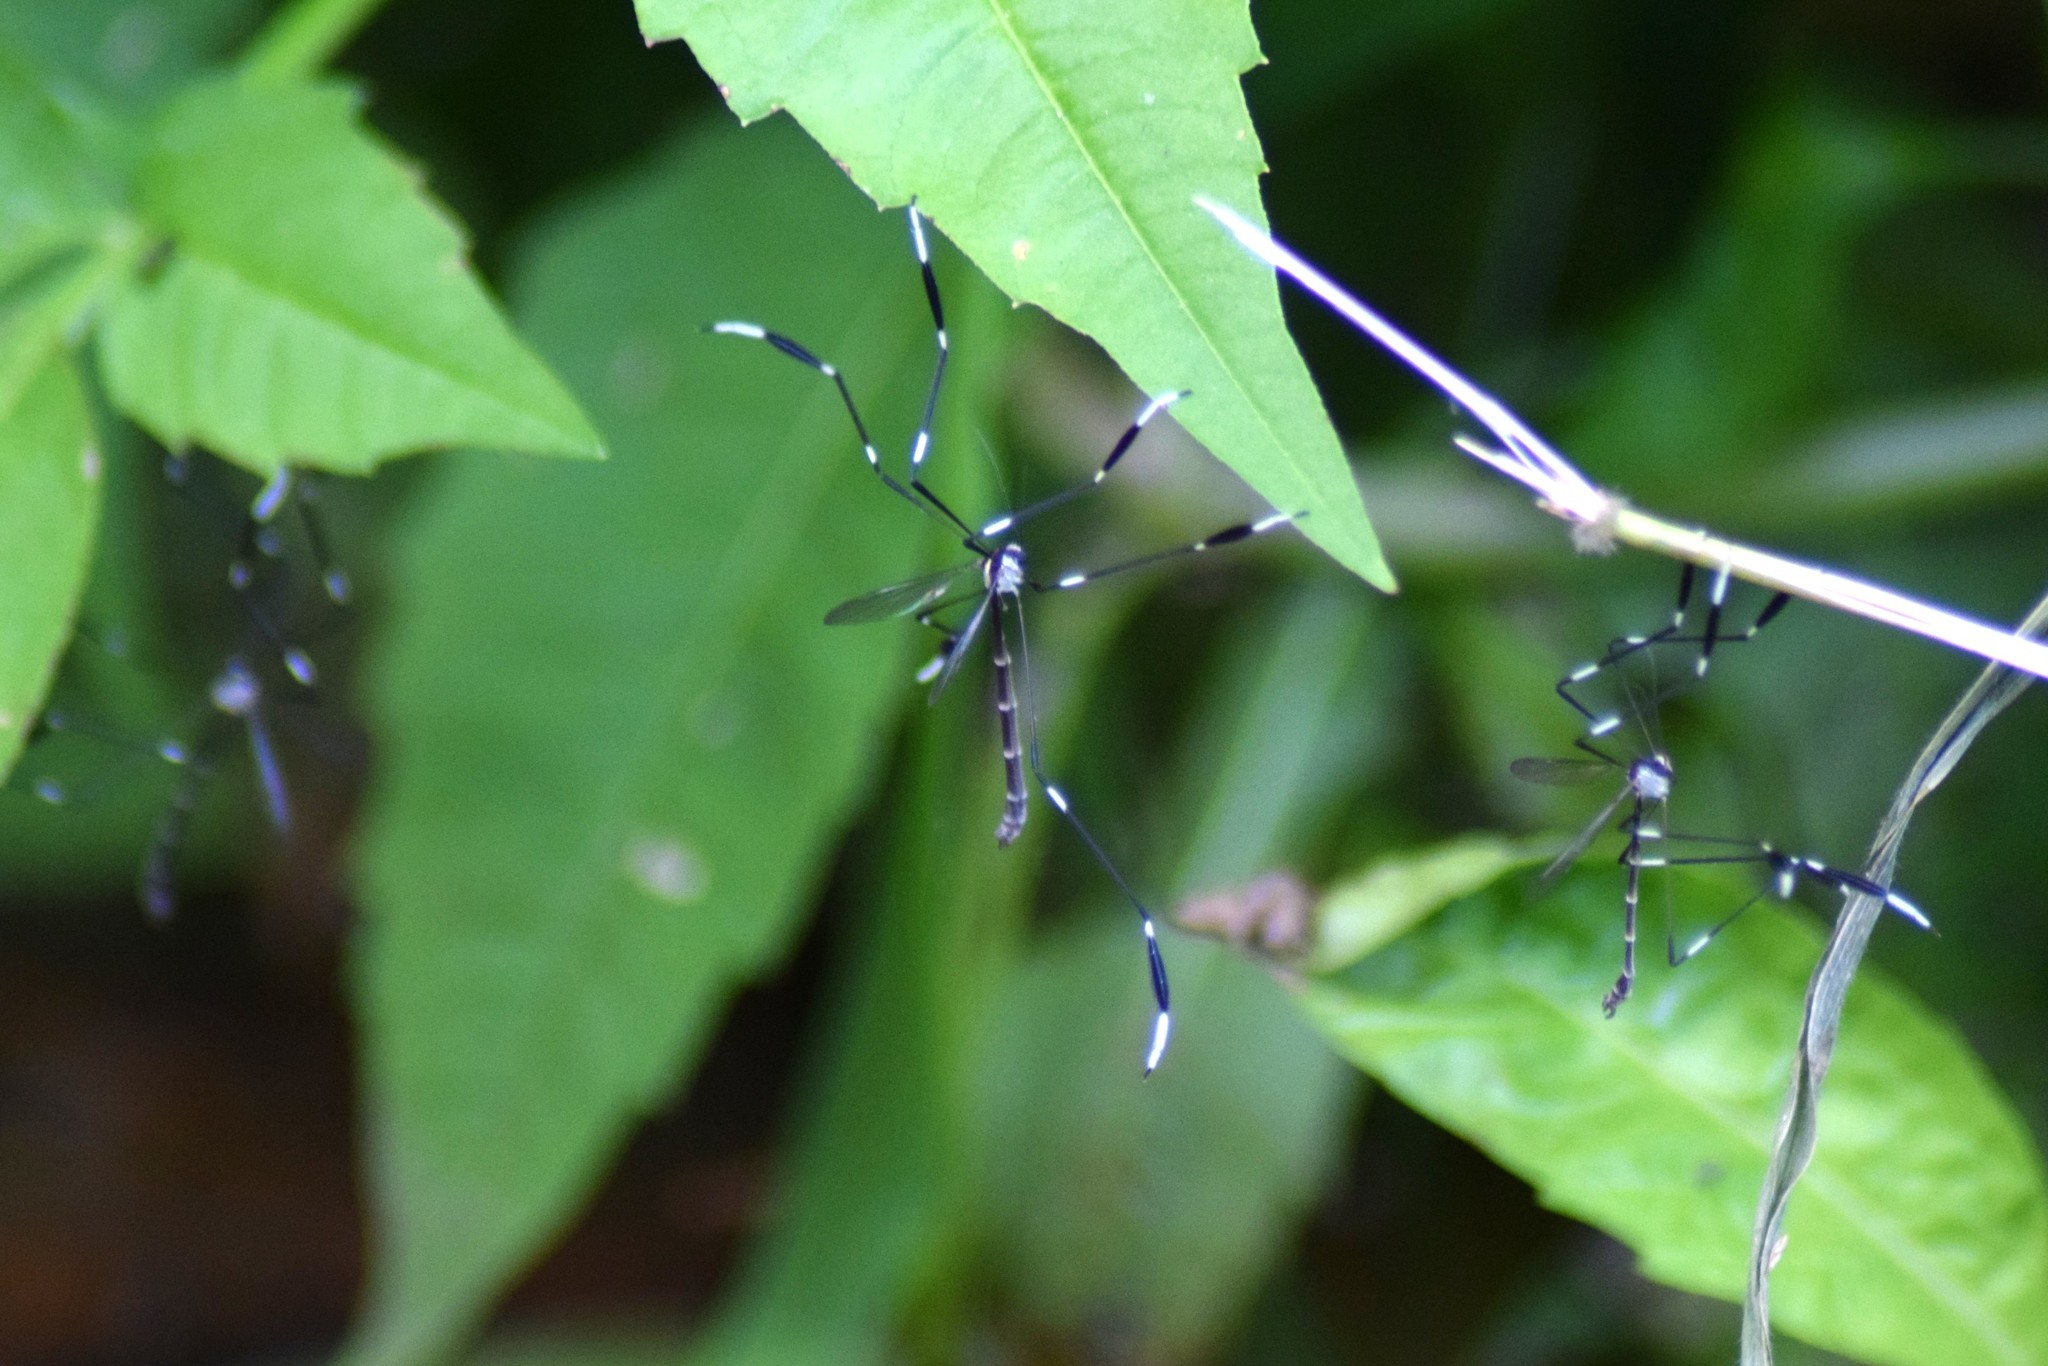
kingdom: Animalia
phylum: Arthropoda
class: Insecta
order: Diptera
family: Ptychopteridae
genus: Bittacomorpha
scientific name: Bittacomorpha clavipes
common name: Eastern phantom crane fly
